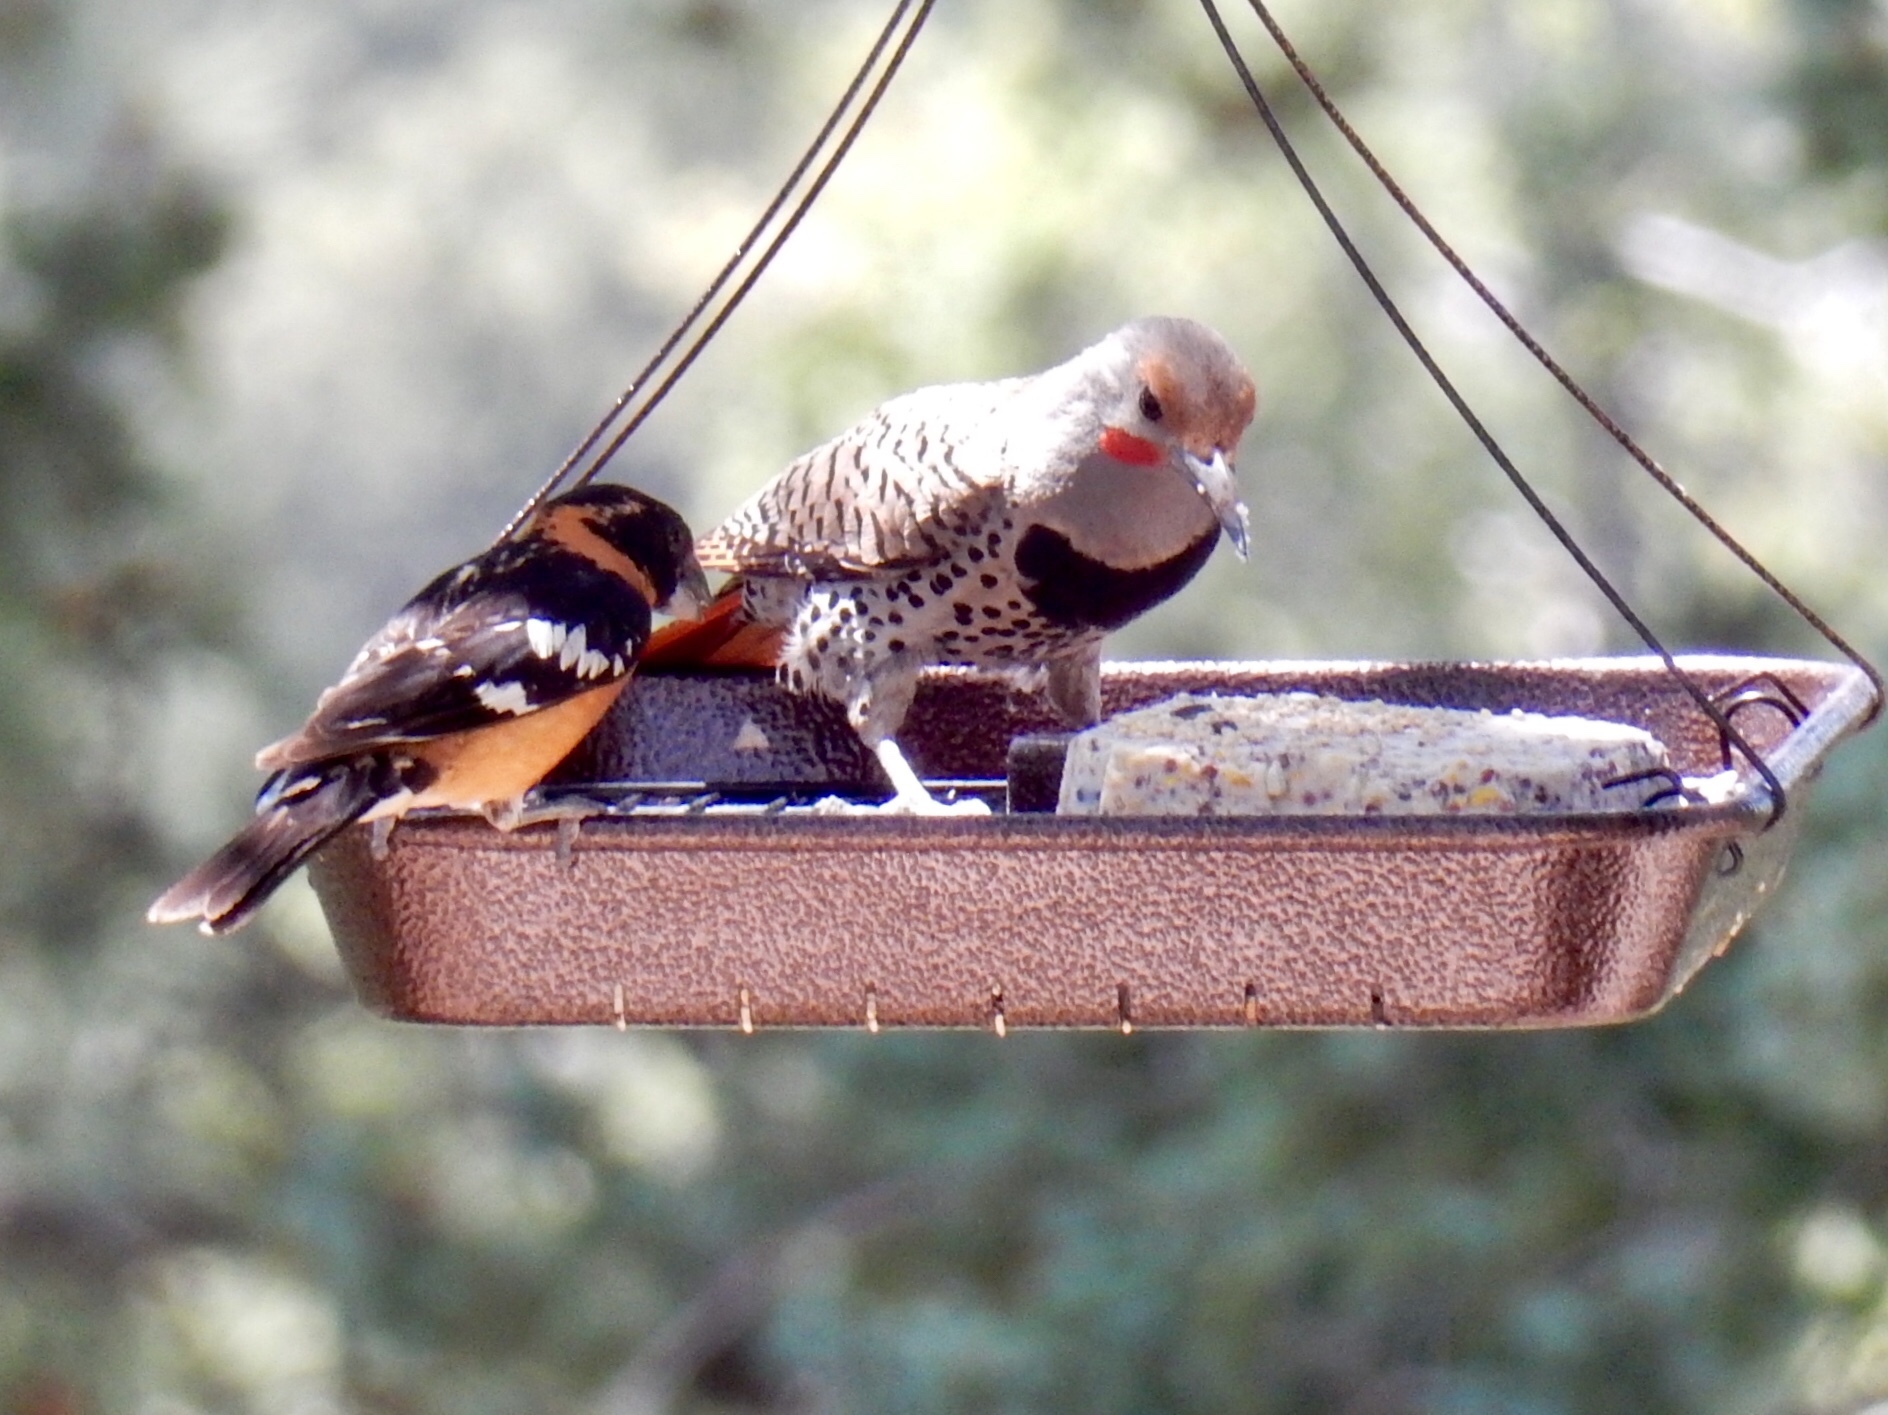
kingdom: Animalia
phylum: Chordata
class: Aves
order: Passeriformes
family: Cardinalidae
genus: Pheucticus
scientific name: Pheucticus melanocephalus
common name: Black-headed grosbeak
